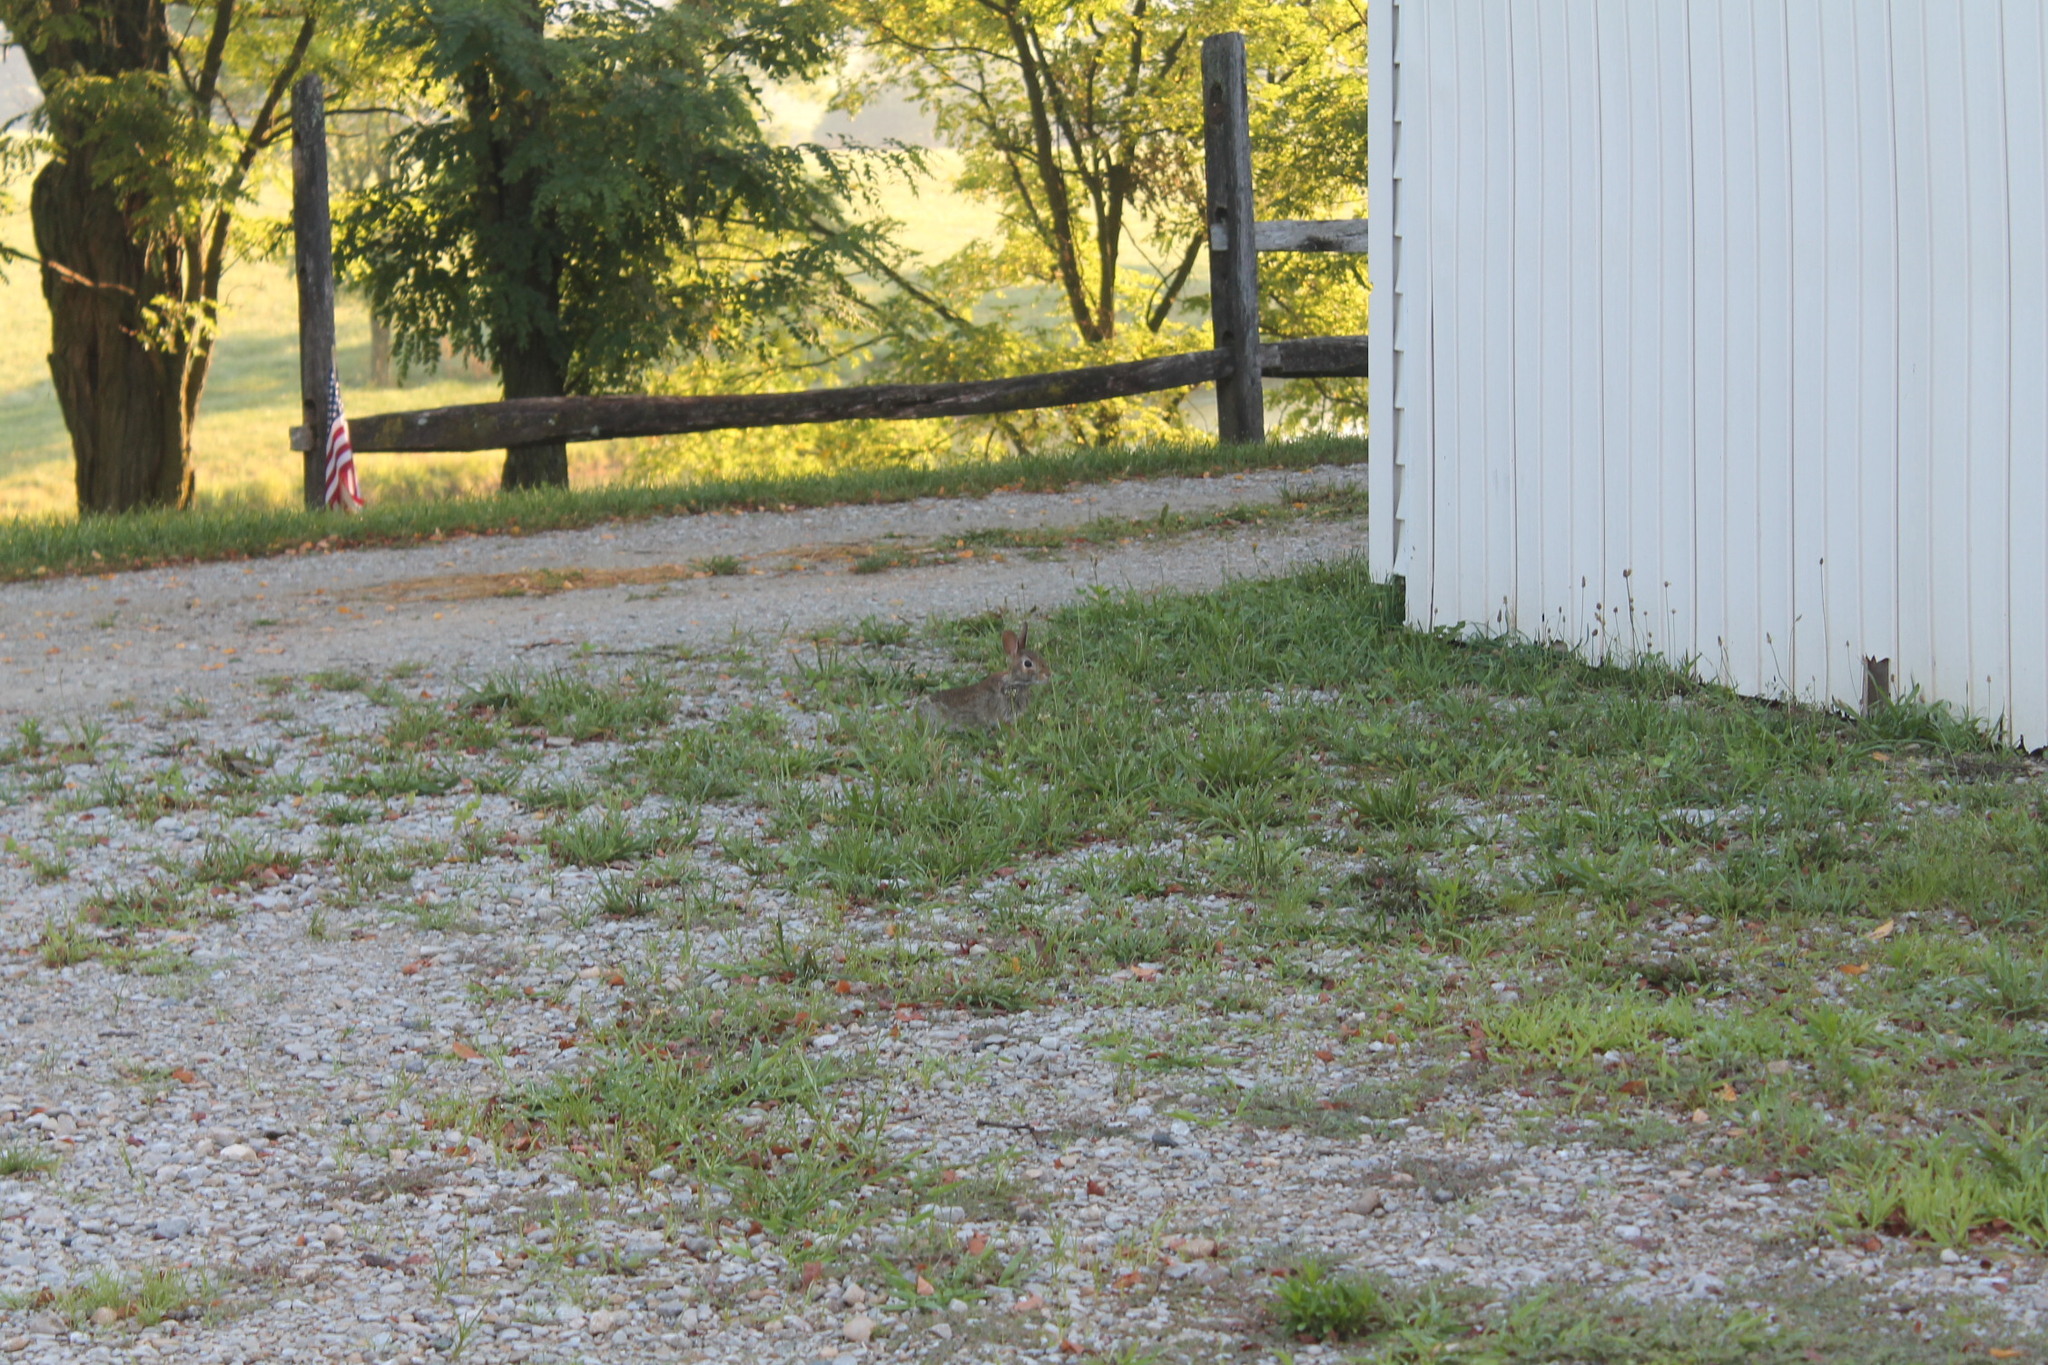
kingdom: Animalia
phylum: Chordata
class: Mammalia
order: Lagomorpha
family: Leporidae
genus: Sylvilagus
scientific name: Sylvilagus floridanus
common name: Eastern cottontail
